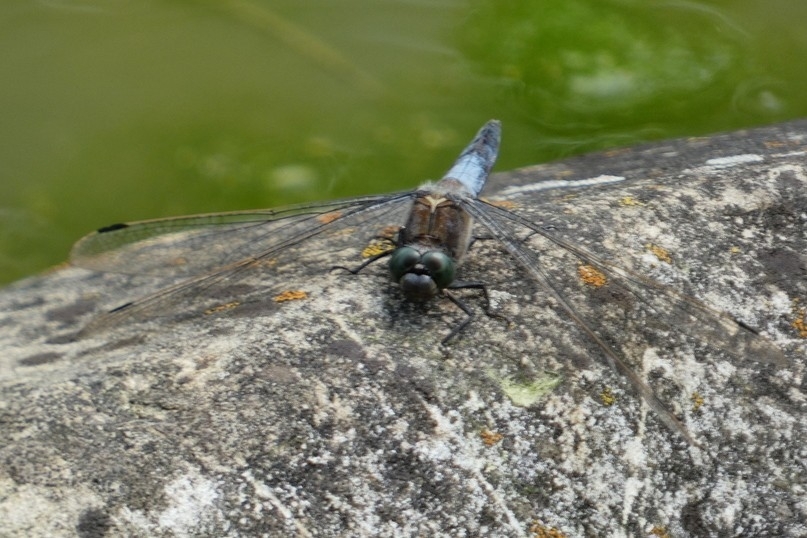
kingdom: Animalia
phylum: Arthropoda
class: Insecta
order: Odonata
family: Libellulidae
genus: Orthetrum
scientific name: Orthetrum cancellatum
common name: Black-tailed skimmer
